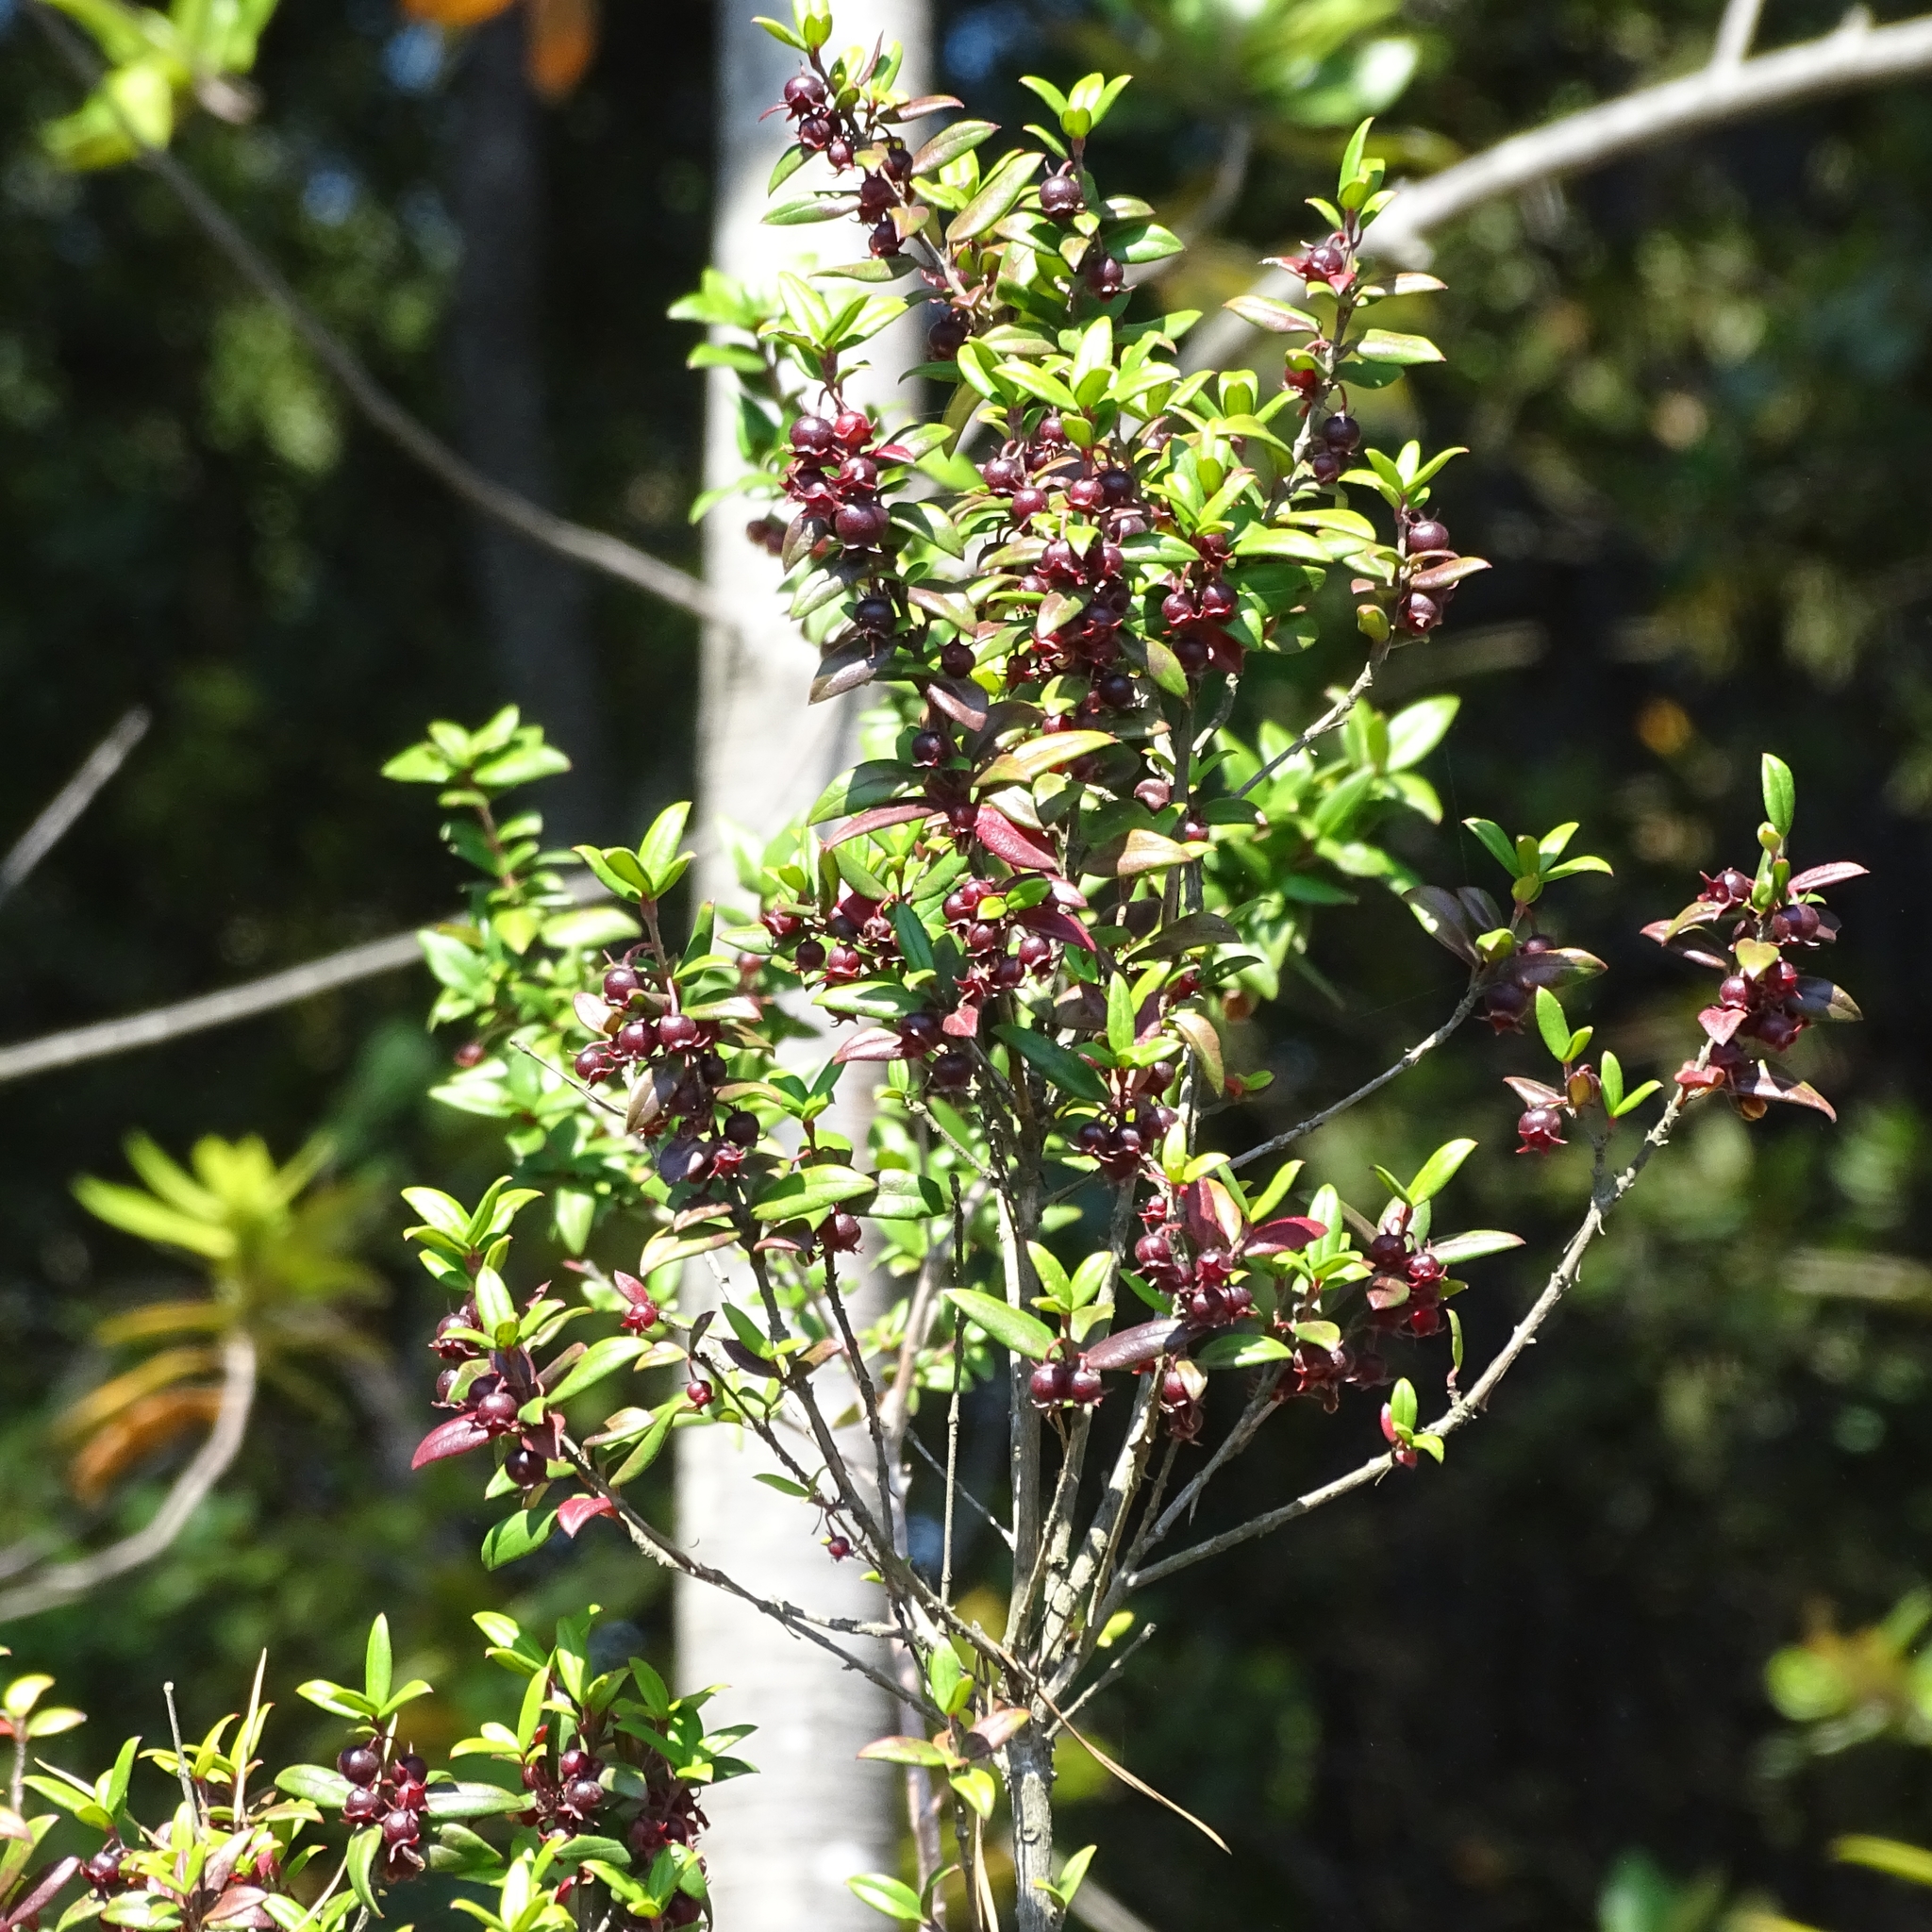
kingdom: Plantae
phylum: Tracheophyta
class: Magnoliopsida
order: Myrtales
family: Myrtaceae
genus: Ugni
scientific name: Ugni molinae
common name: Chilean-guava
